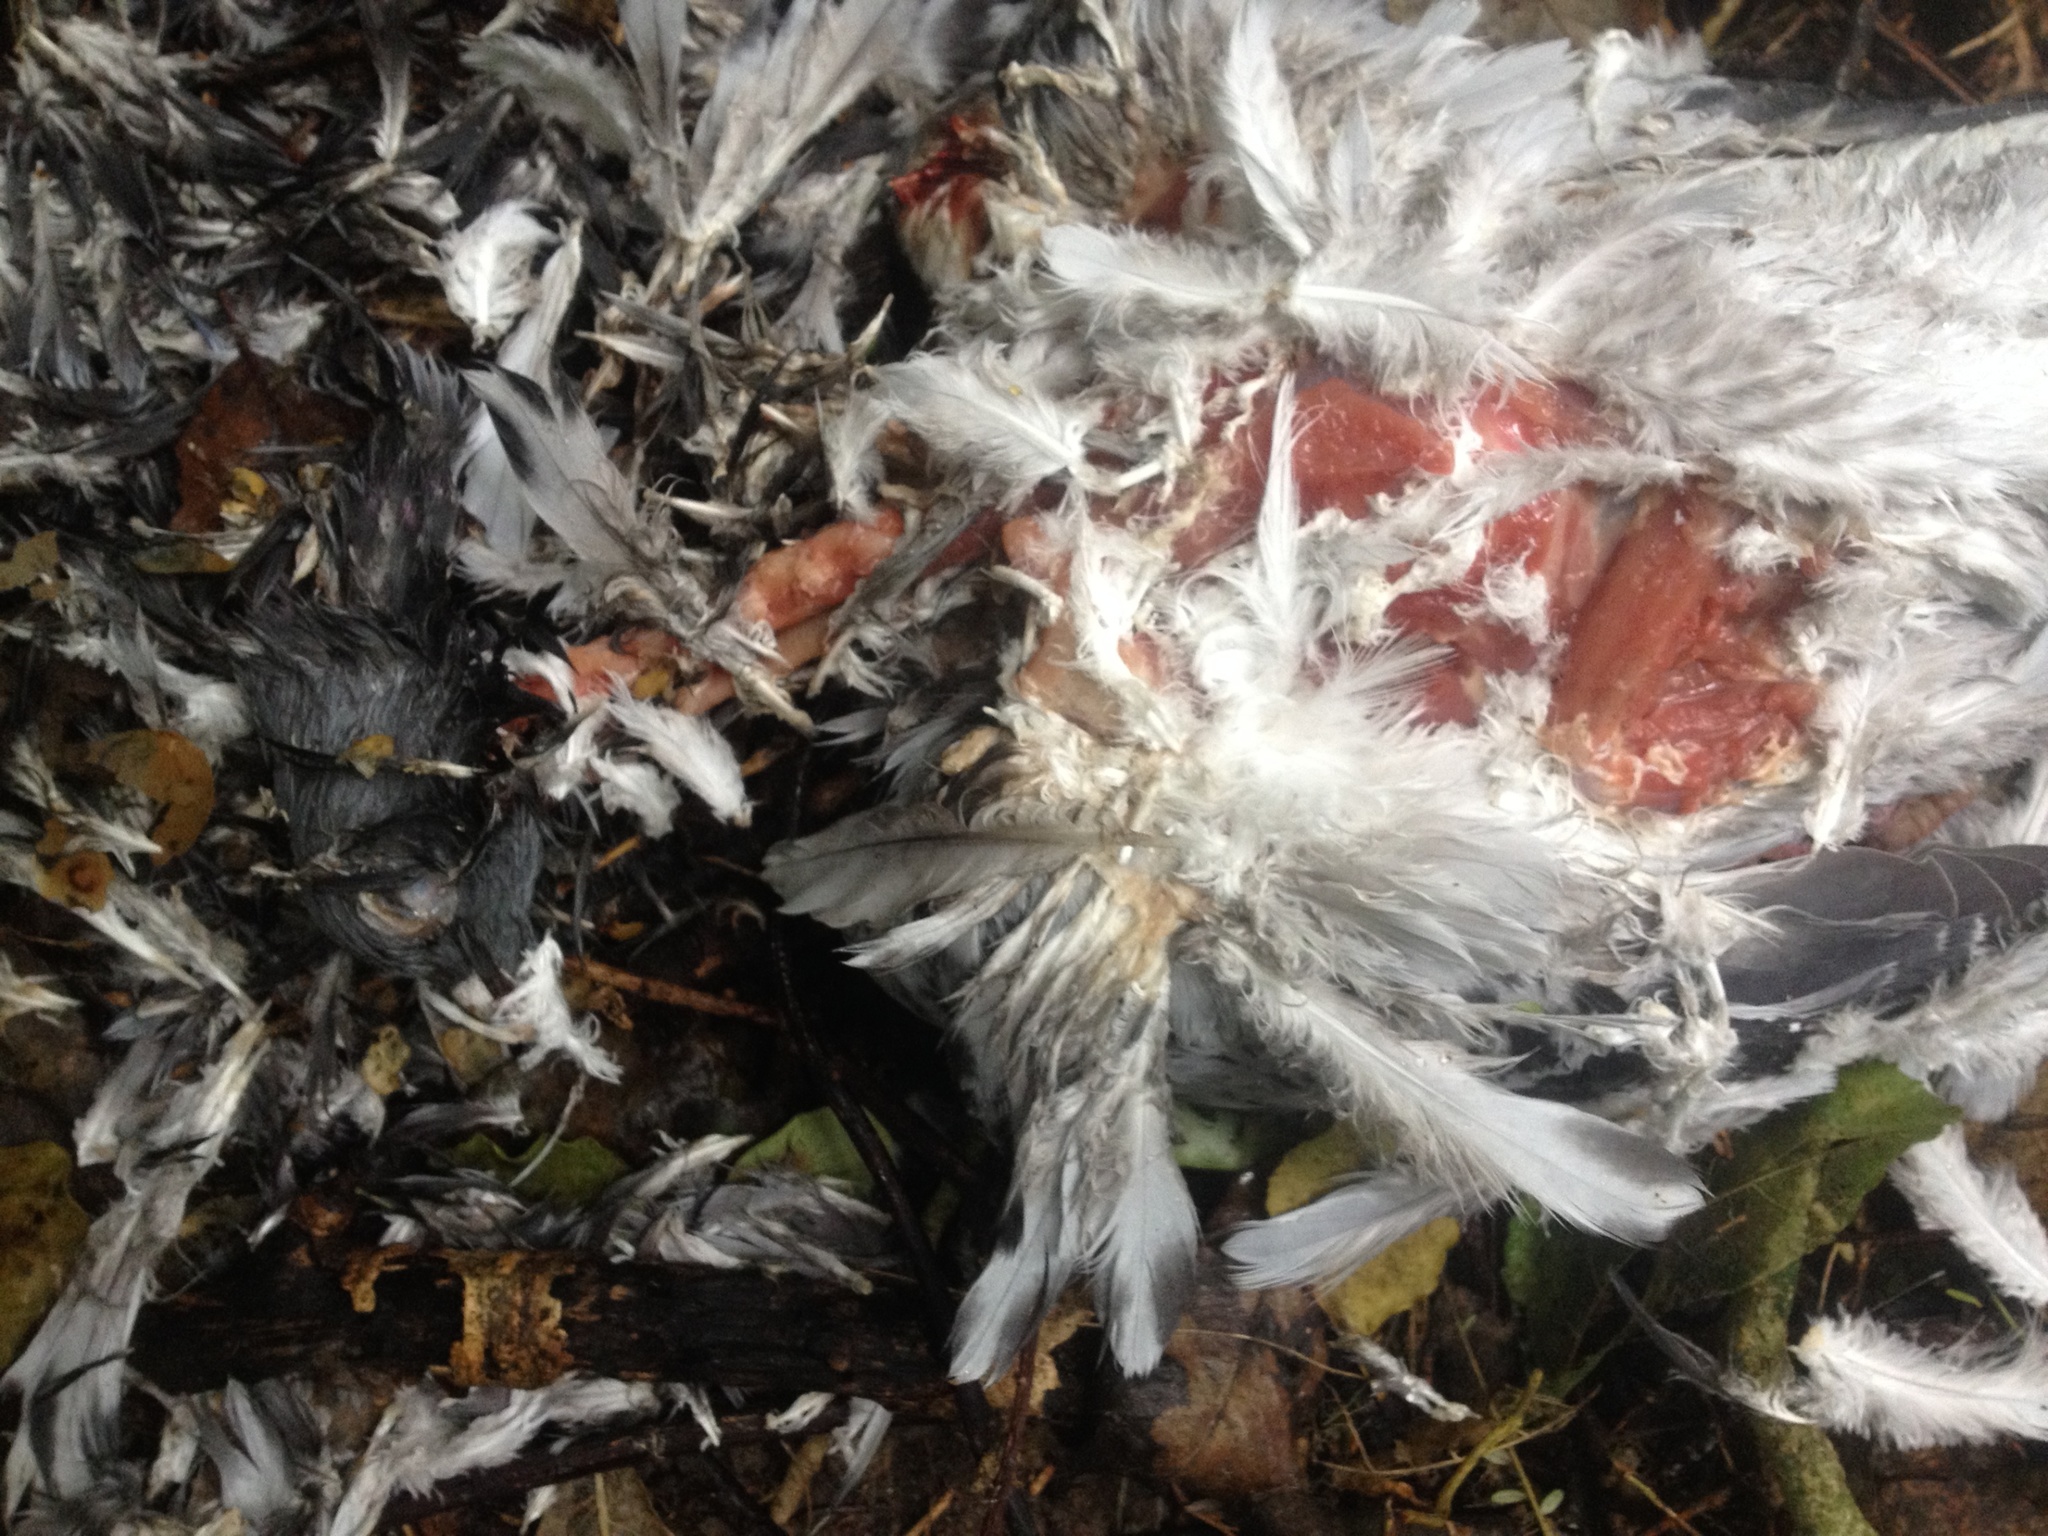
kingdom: Animalia
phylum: Chordata
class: Aves
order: Columbiformes
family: Columbidae
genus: Columba
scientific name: Columba livia
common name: Rock pigeon
